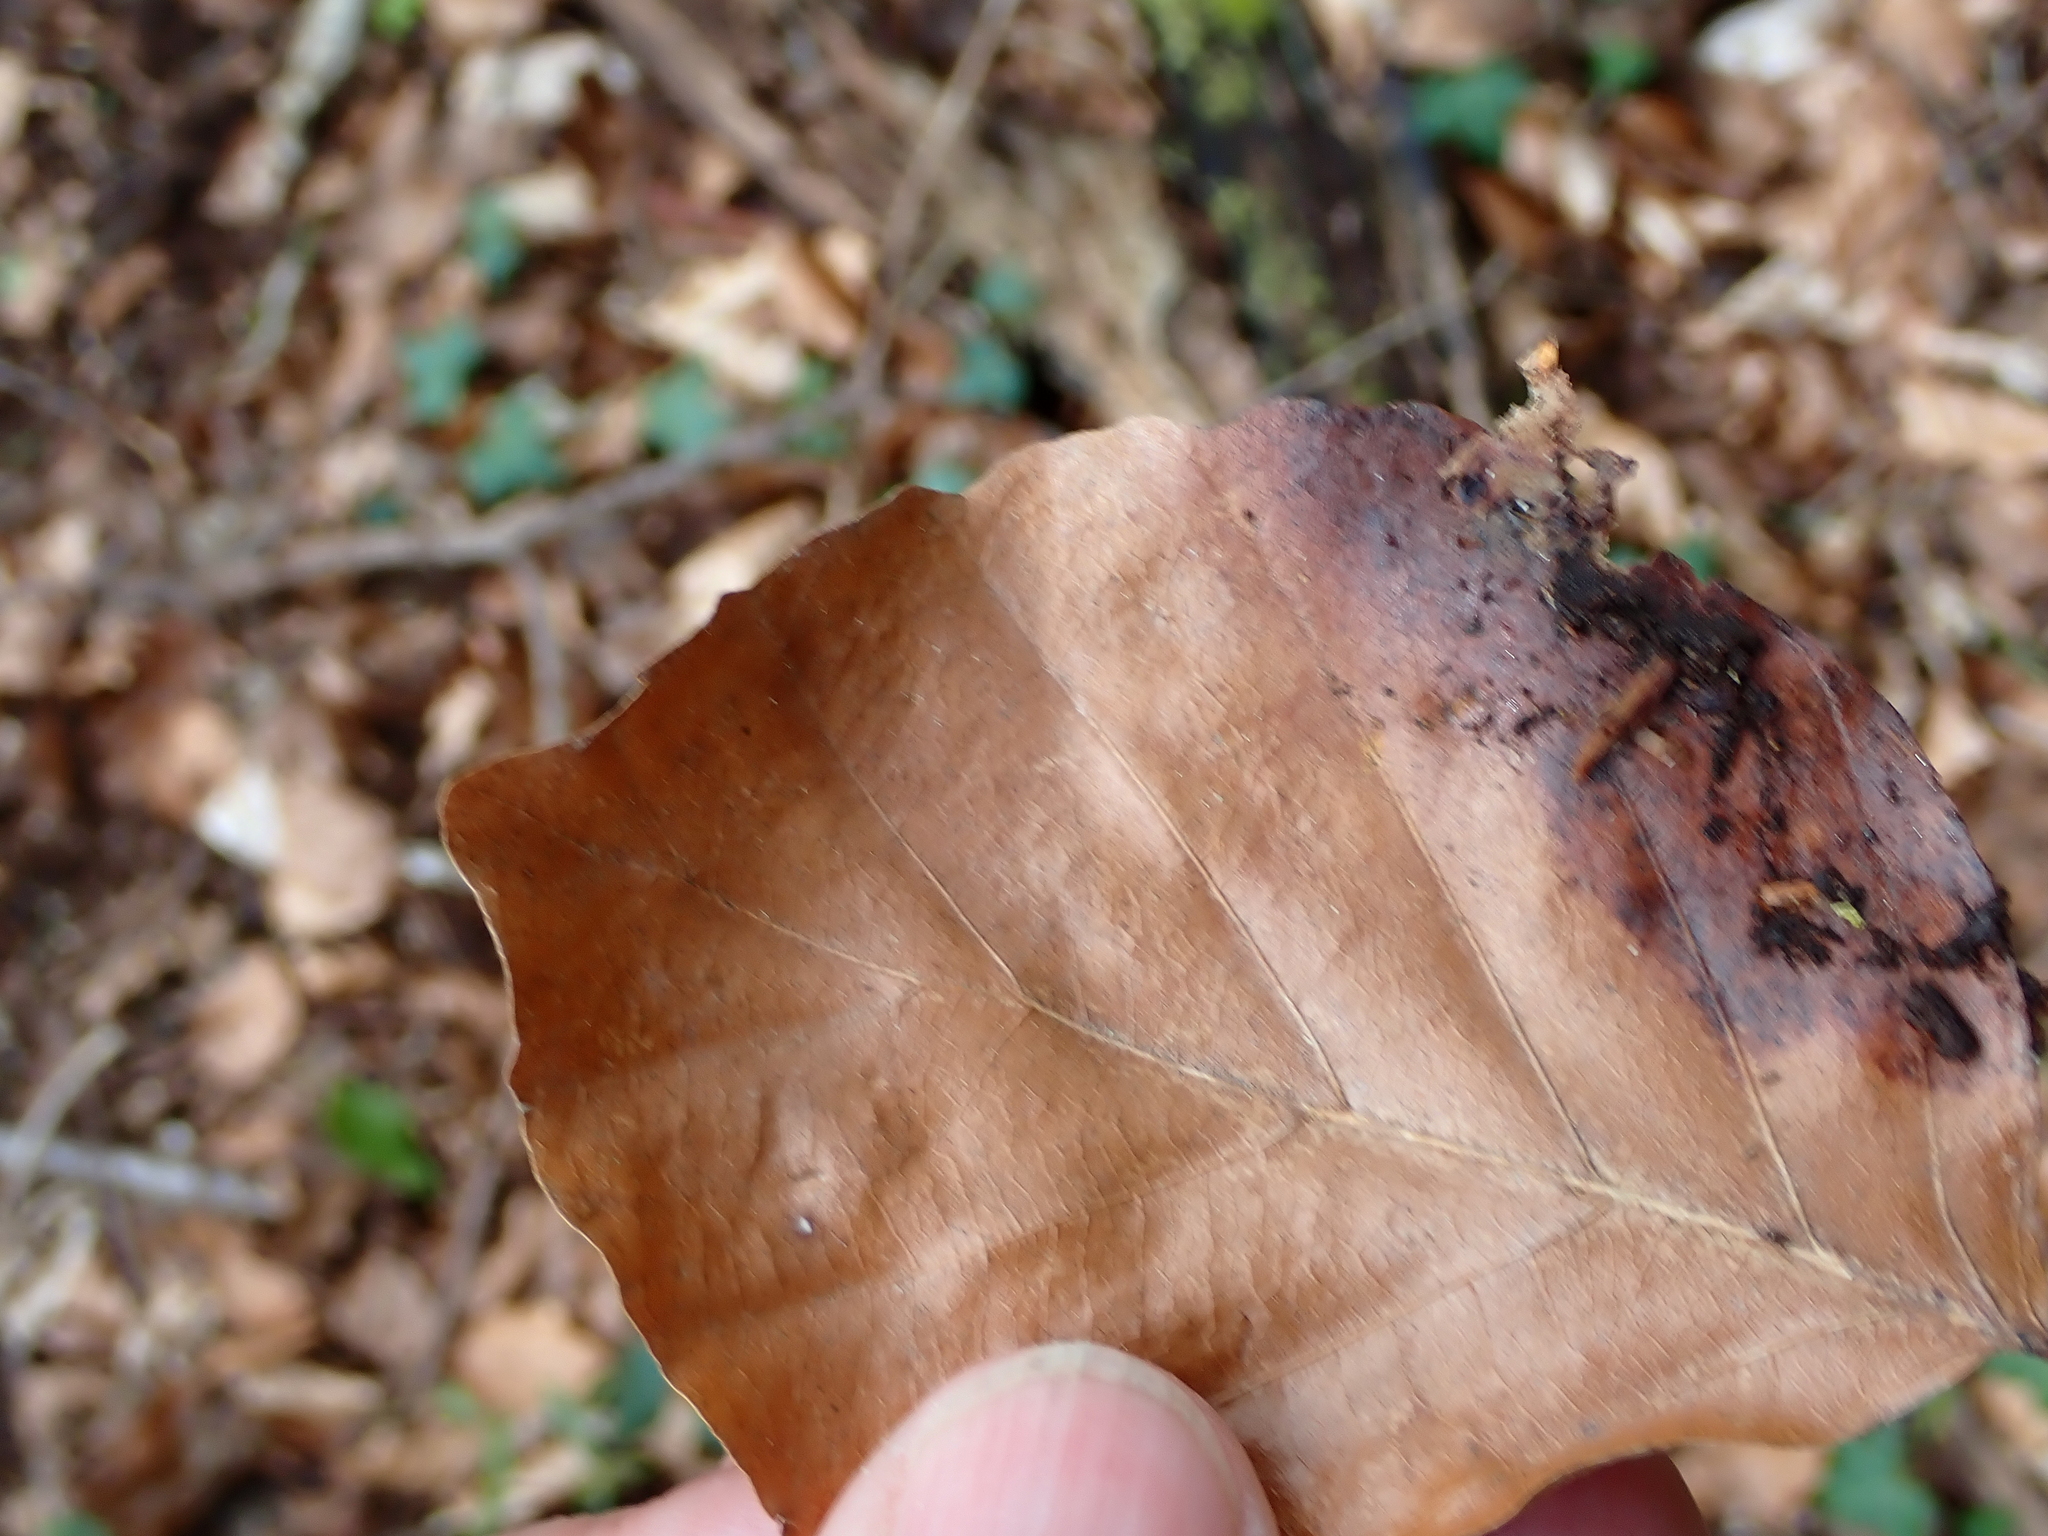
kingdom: Plantae
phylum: Tracheophyta
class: Magnoliopsida
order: Fagales
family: Fagaceae
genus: Fagus
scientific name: Fagus sylvatica
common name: Beech
